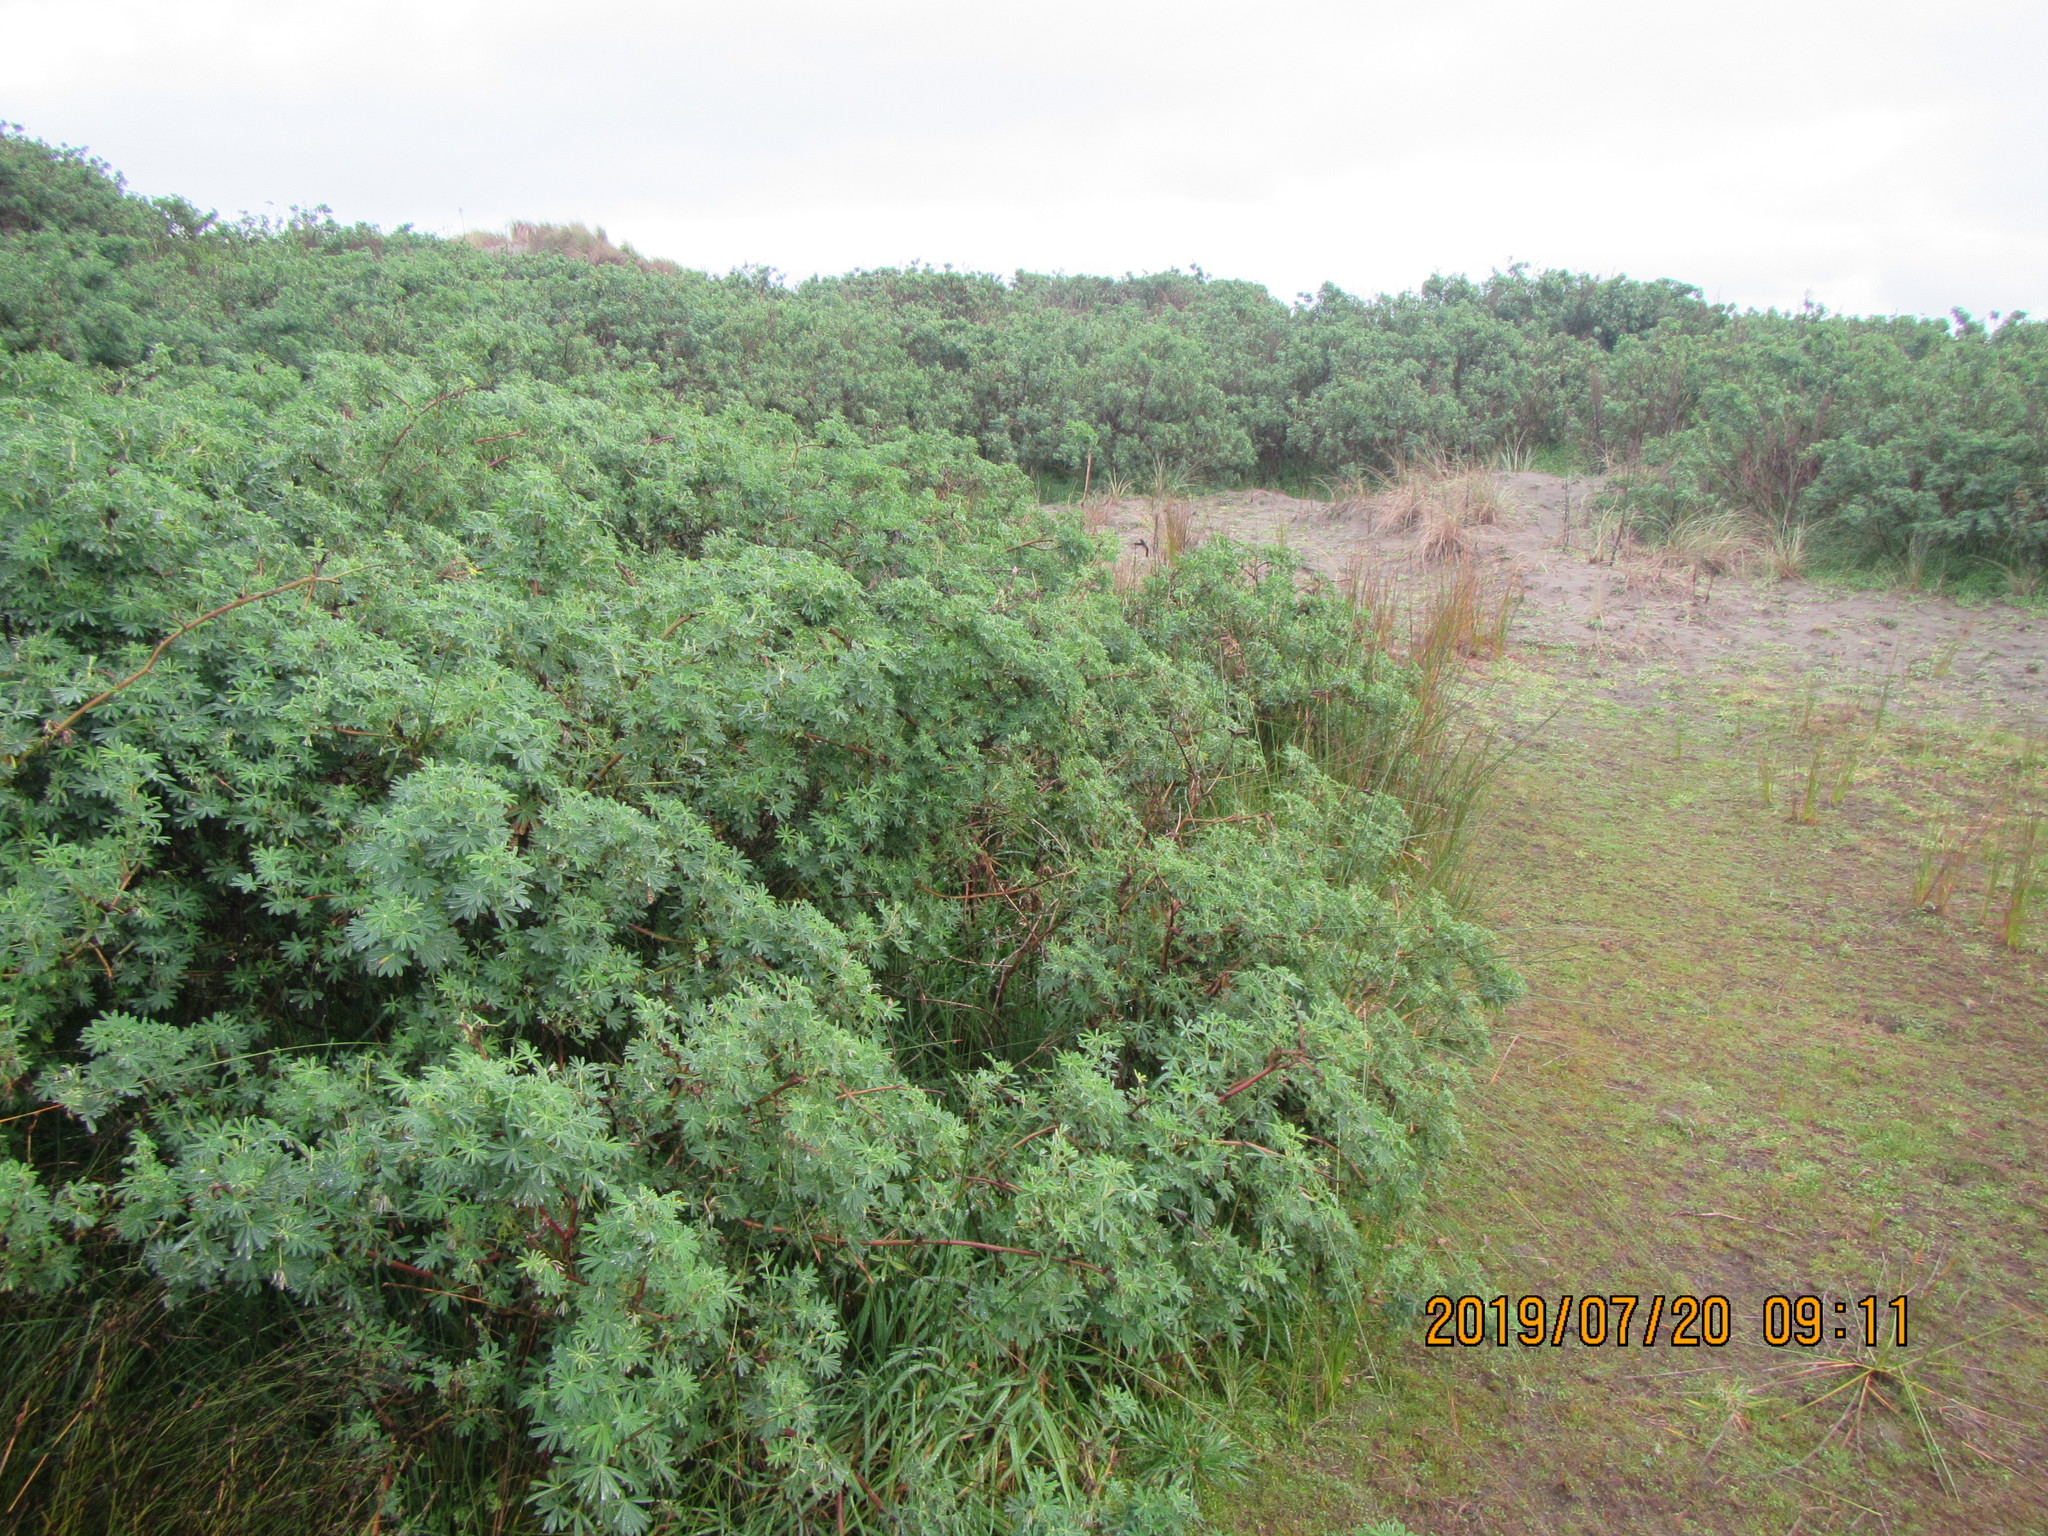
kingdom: Plantae
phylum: Tracheophyta
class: Magnoliopsida
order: Fabales
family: Fabaceae
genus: Lupinus
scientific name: Lupinus arboreus
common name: Yellow bush lupine
